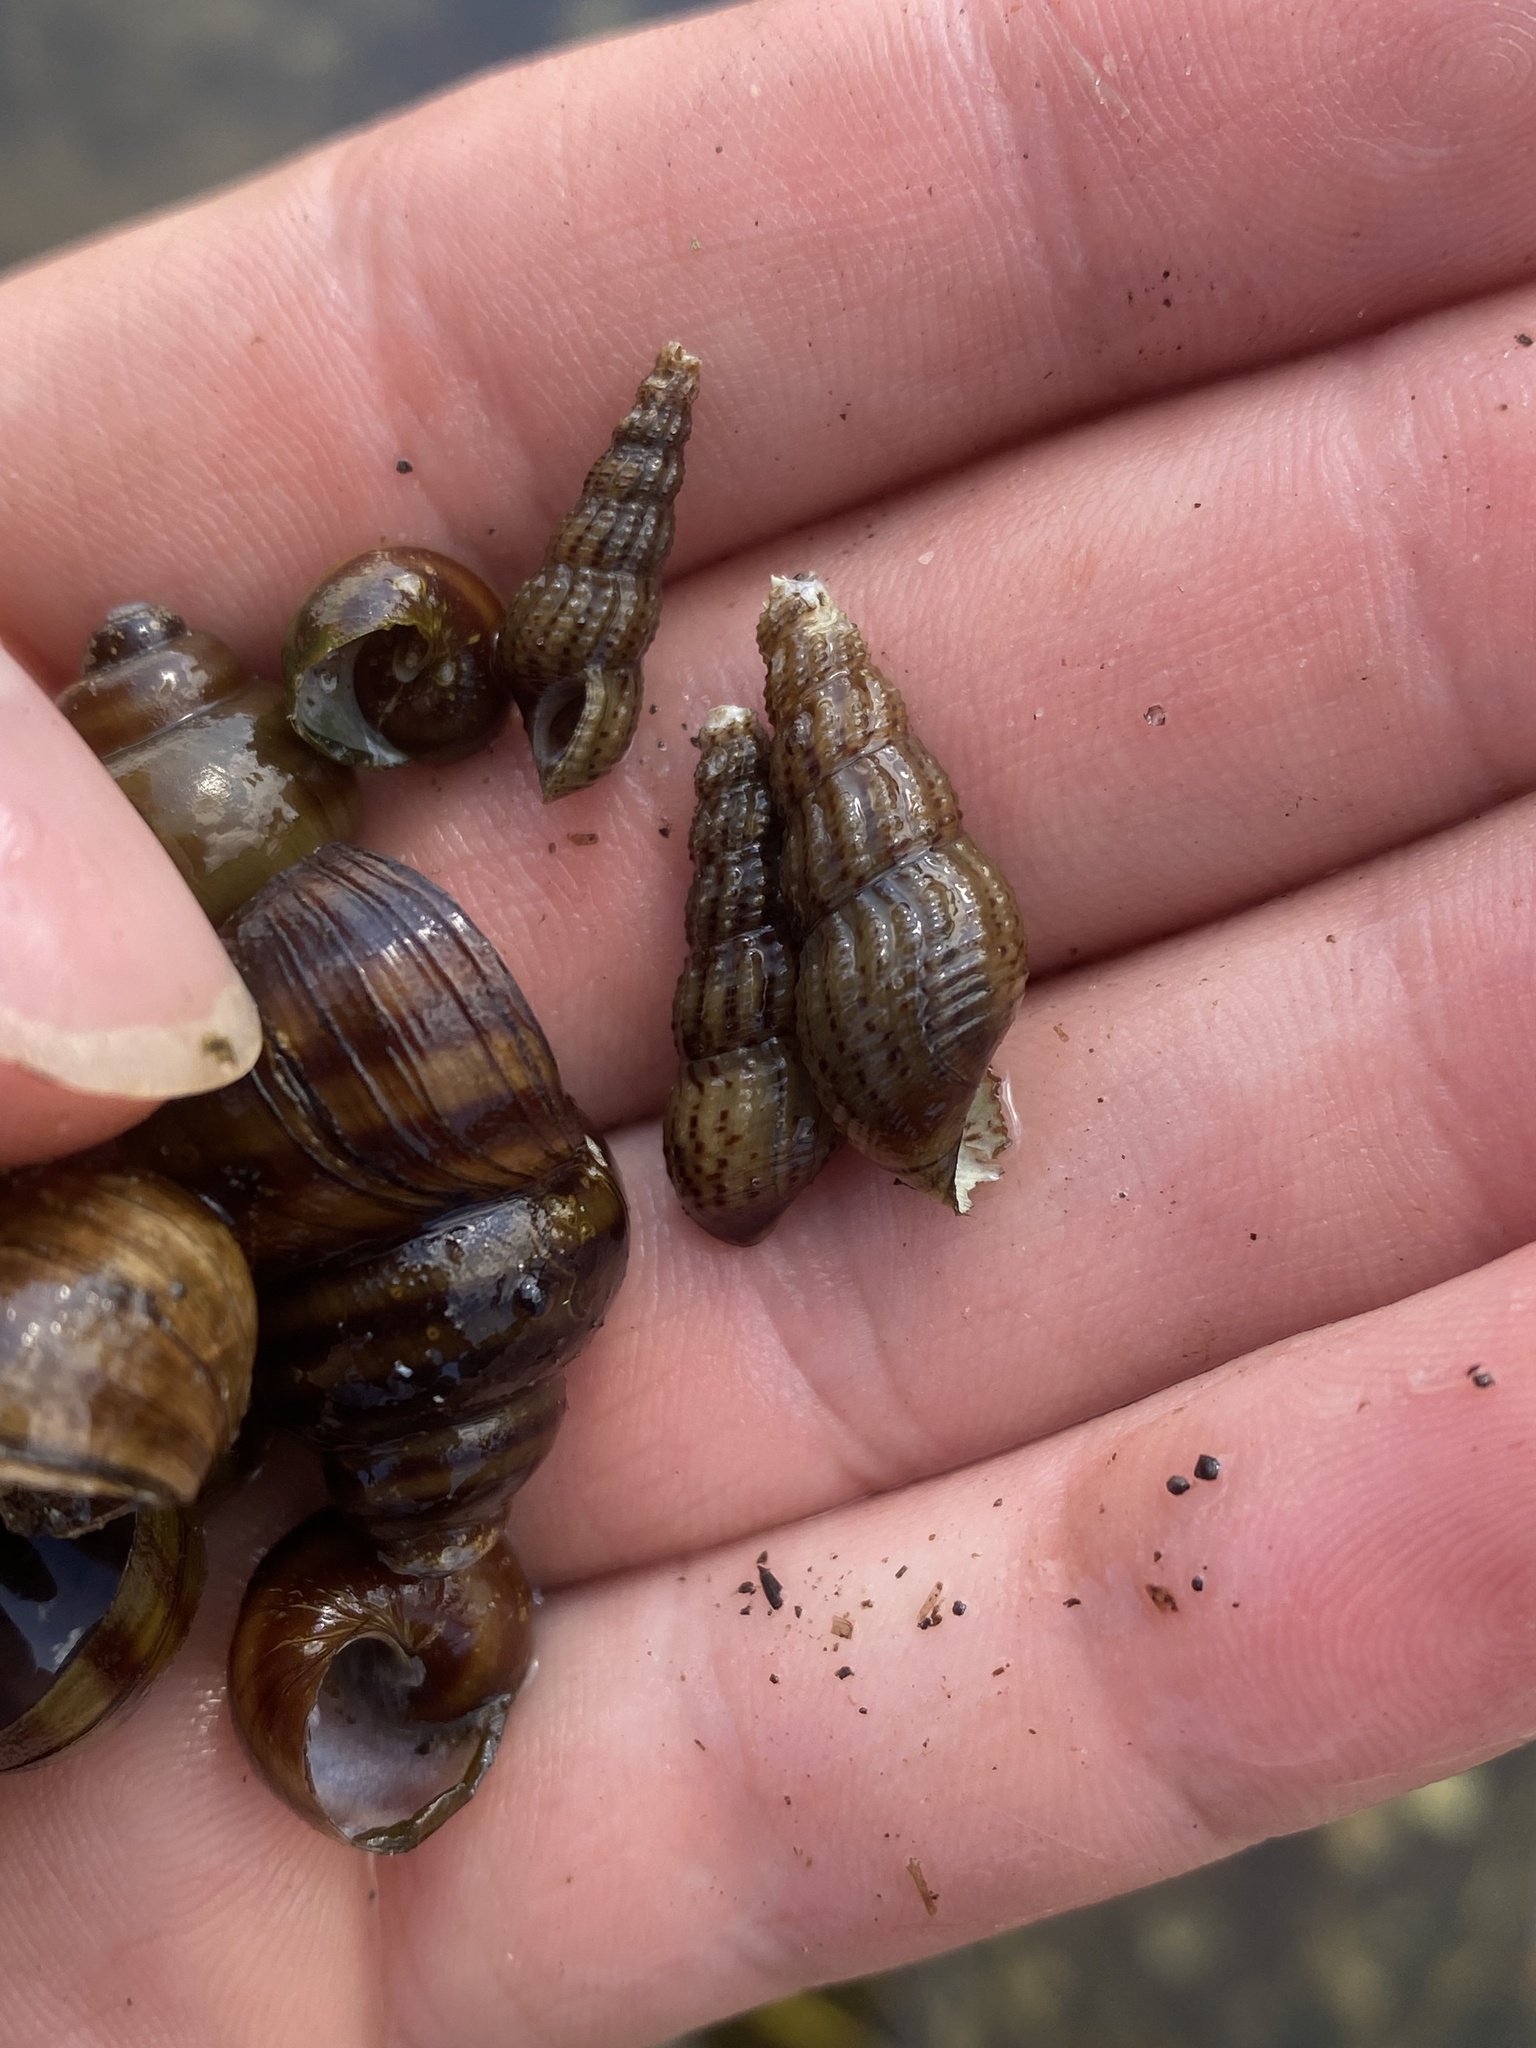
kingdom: Animalia
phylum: Mollusca
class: Gastropoda
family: Thiaridae
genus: Melanoides
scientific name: Melanoides tuberculata
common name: Red-rim melania
